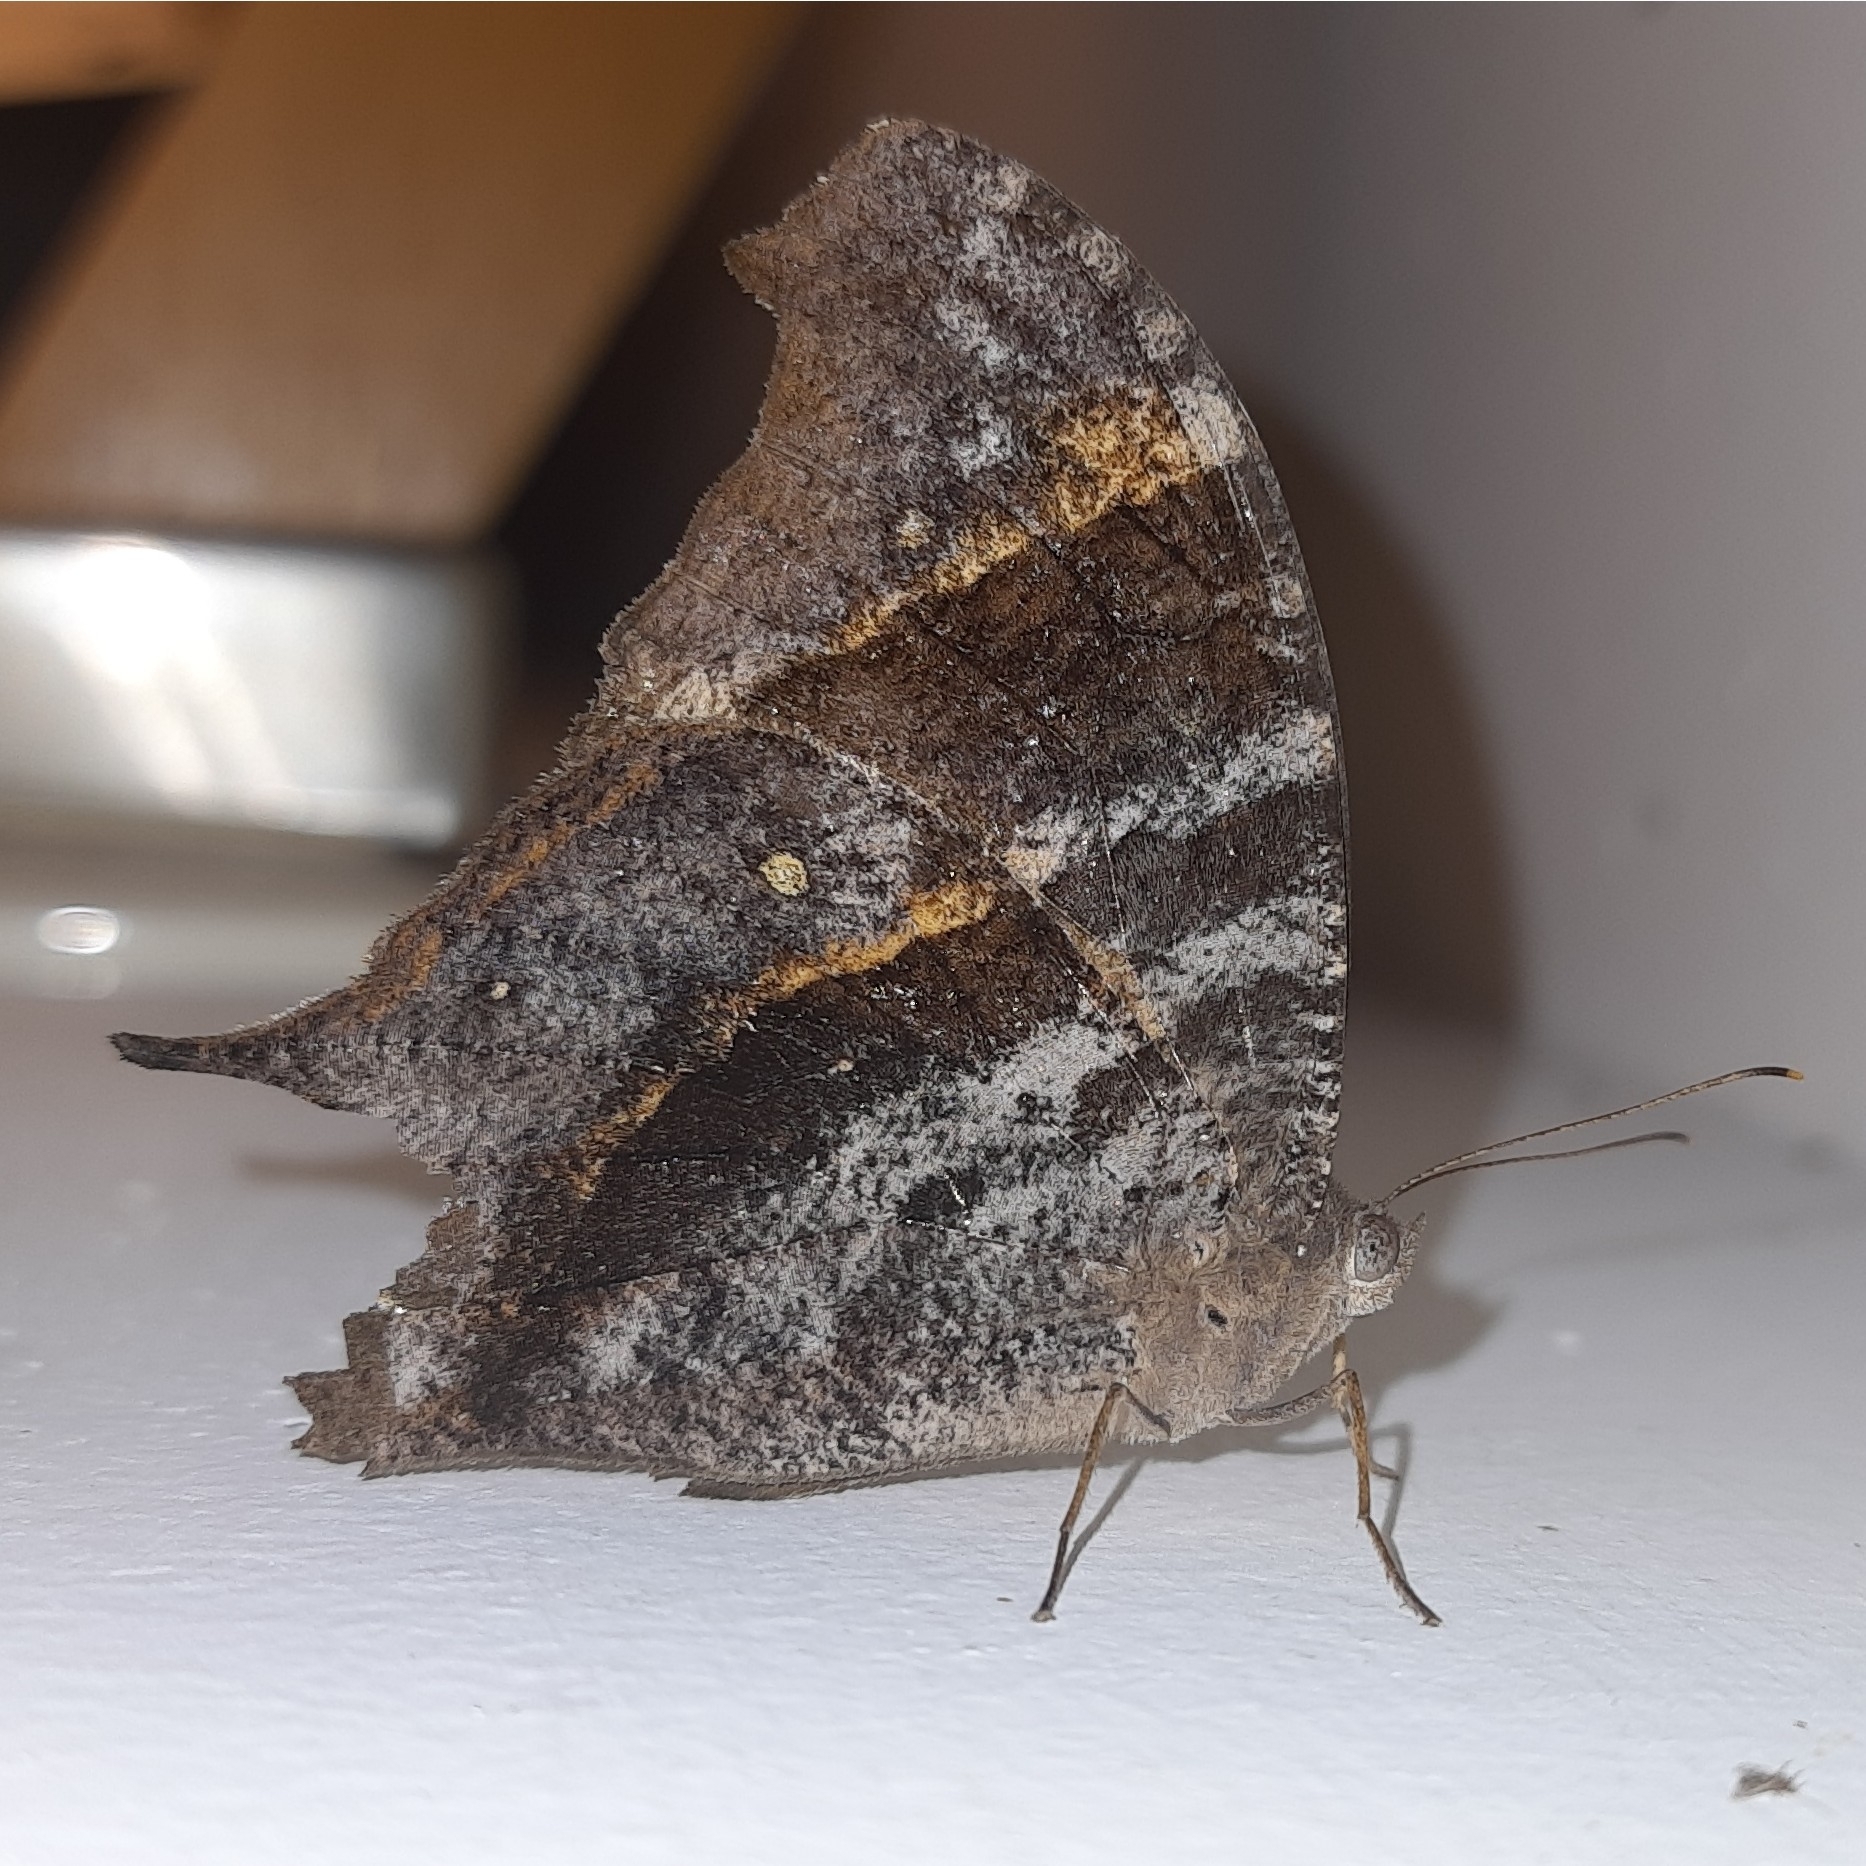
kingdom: Animalia
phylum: Arthropoda
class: Insecta
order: Lepidoptera
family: Nymphalidae
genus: Melanitis
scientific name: Melanitis leda
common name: Twilight brown
